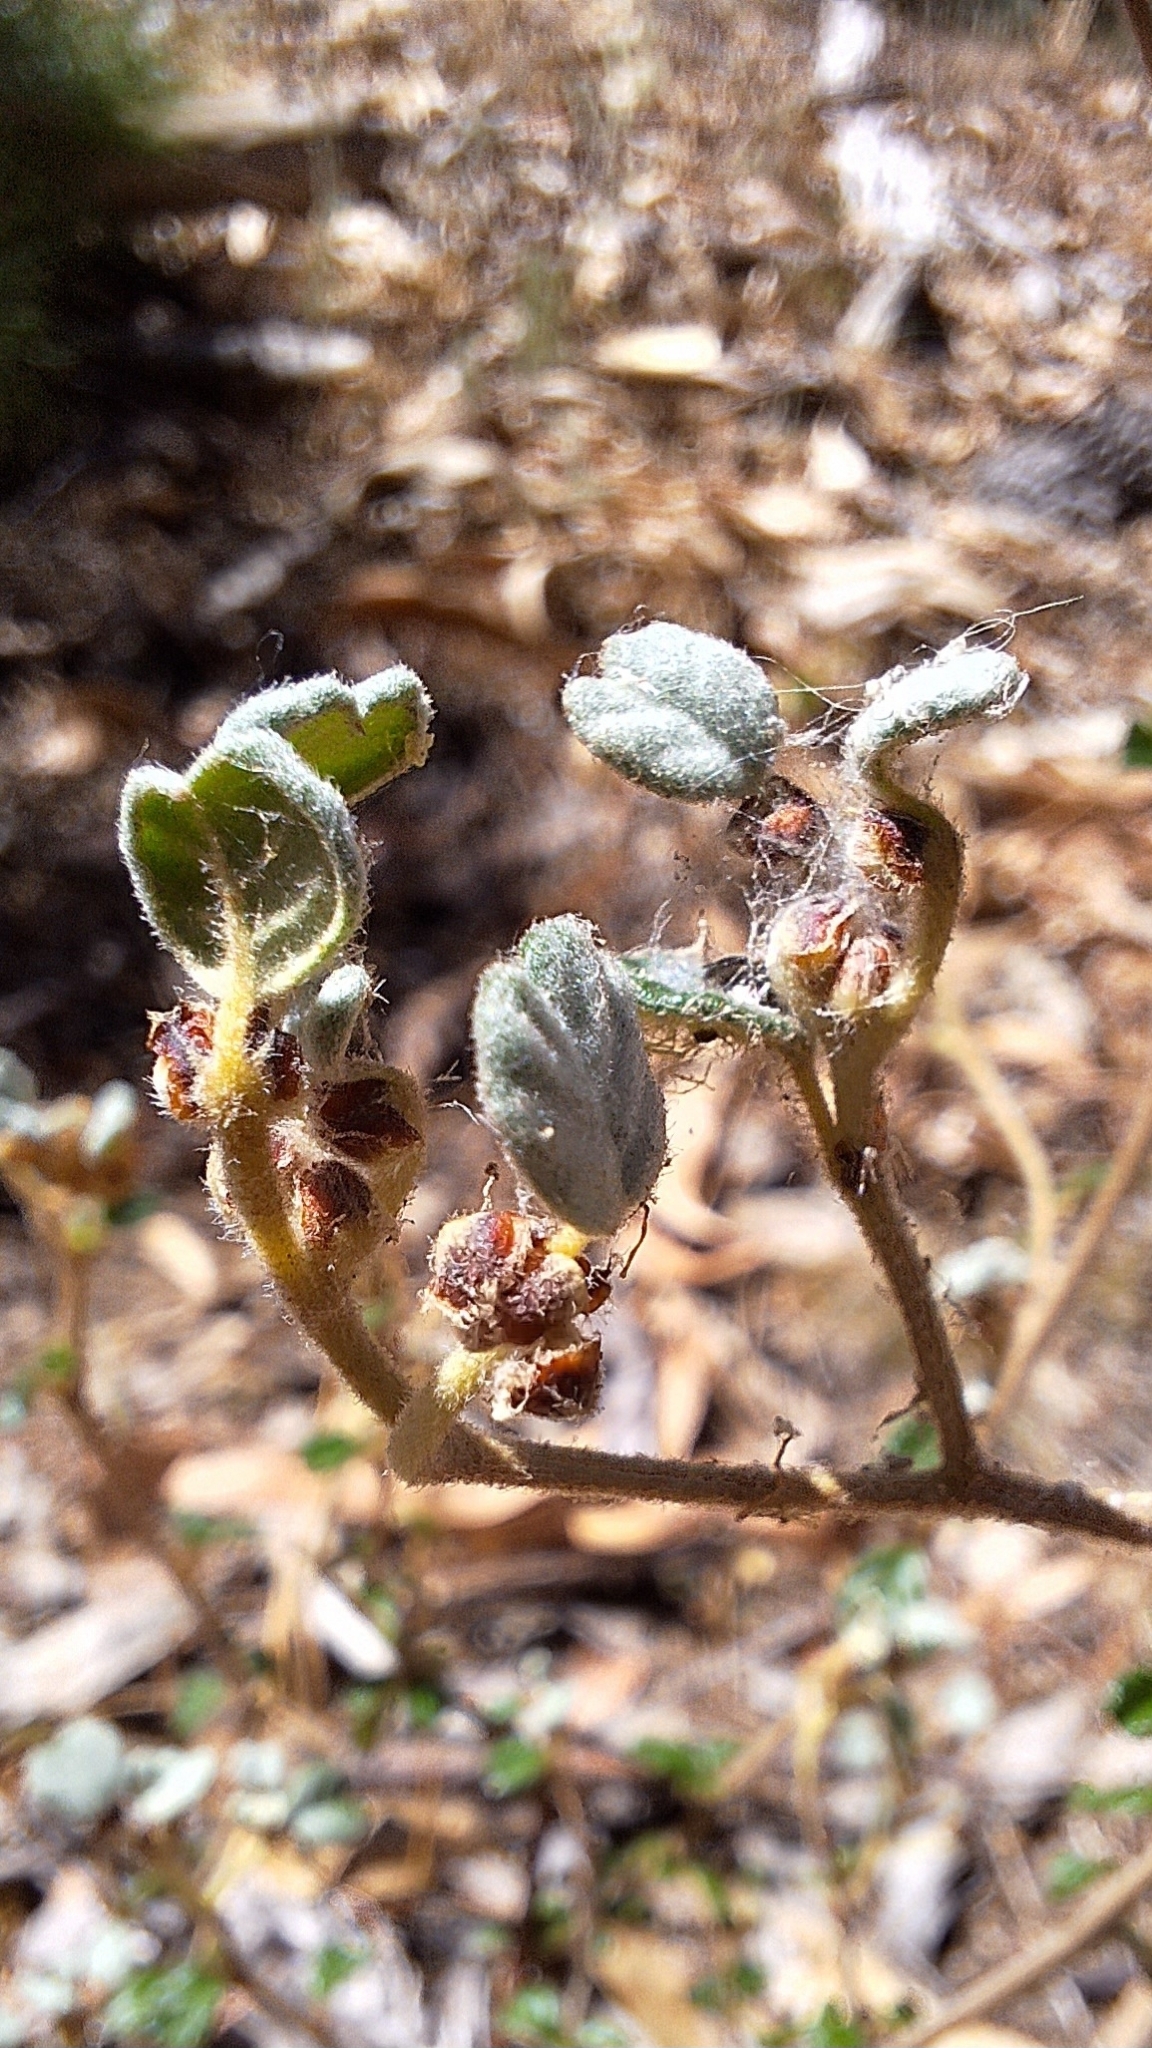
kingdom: Plantae
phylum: Tracheophyta
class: Magnoliopsida
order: Rosales
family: Rhamnaceae
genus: Spyridium
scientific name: Spyridium parvifolium
